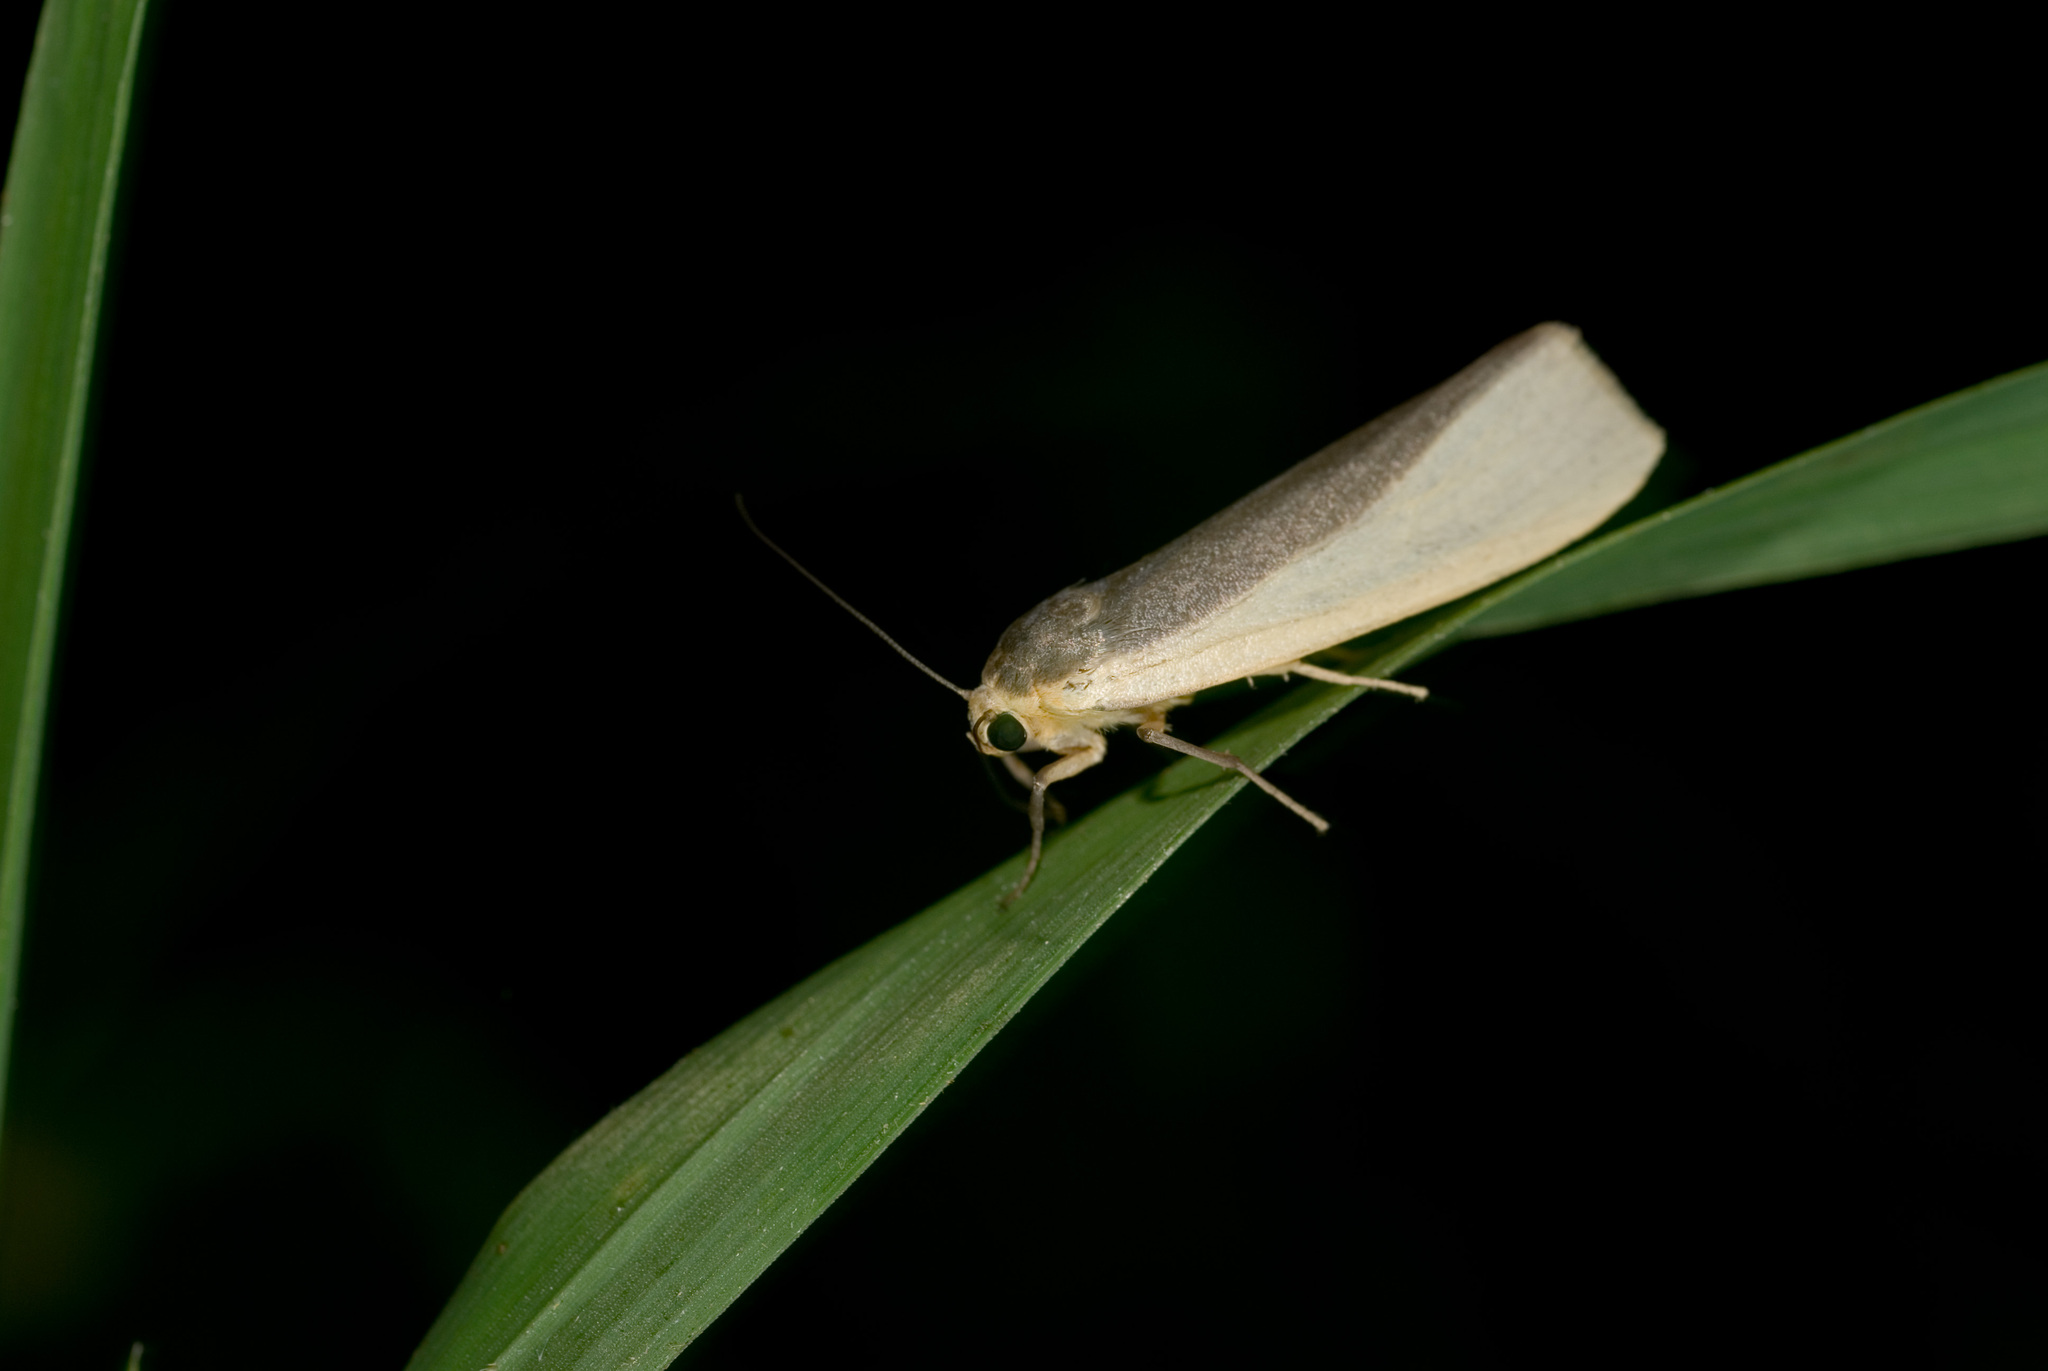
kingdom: Animalia
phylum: Arthropoda
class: Insecta
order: Lepidoptera
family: Erebidae
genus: Hesudra
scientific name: Hesudra divisa
